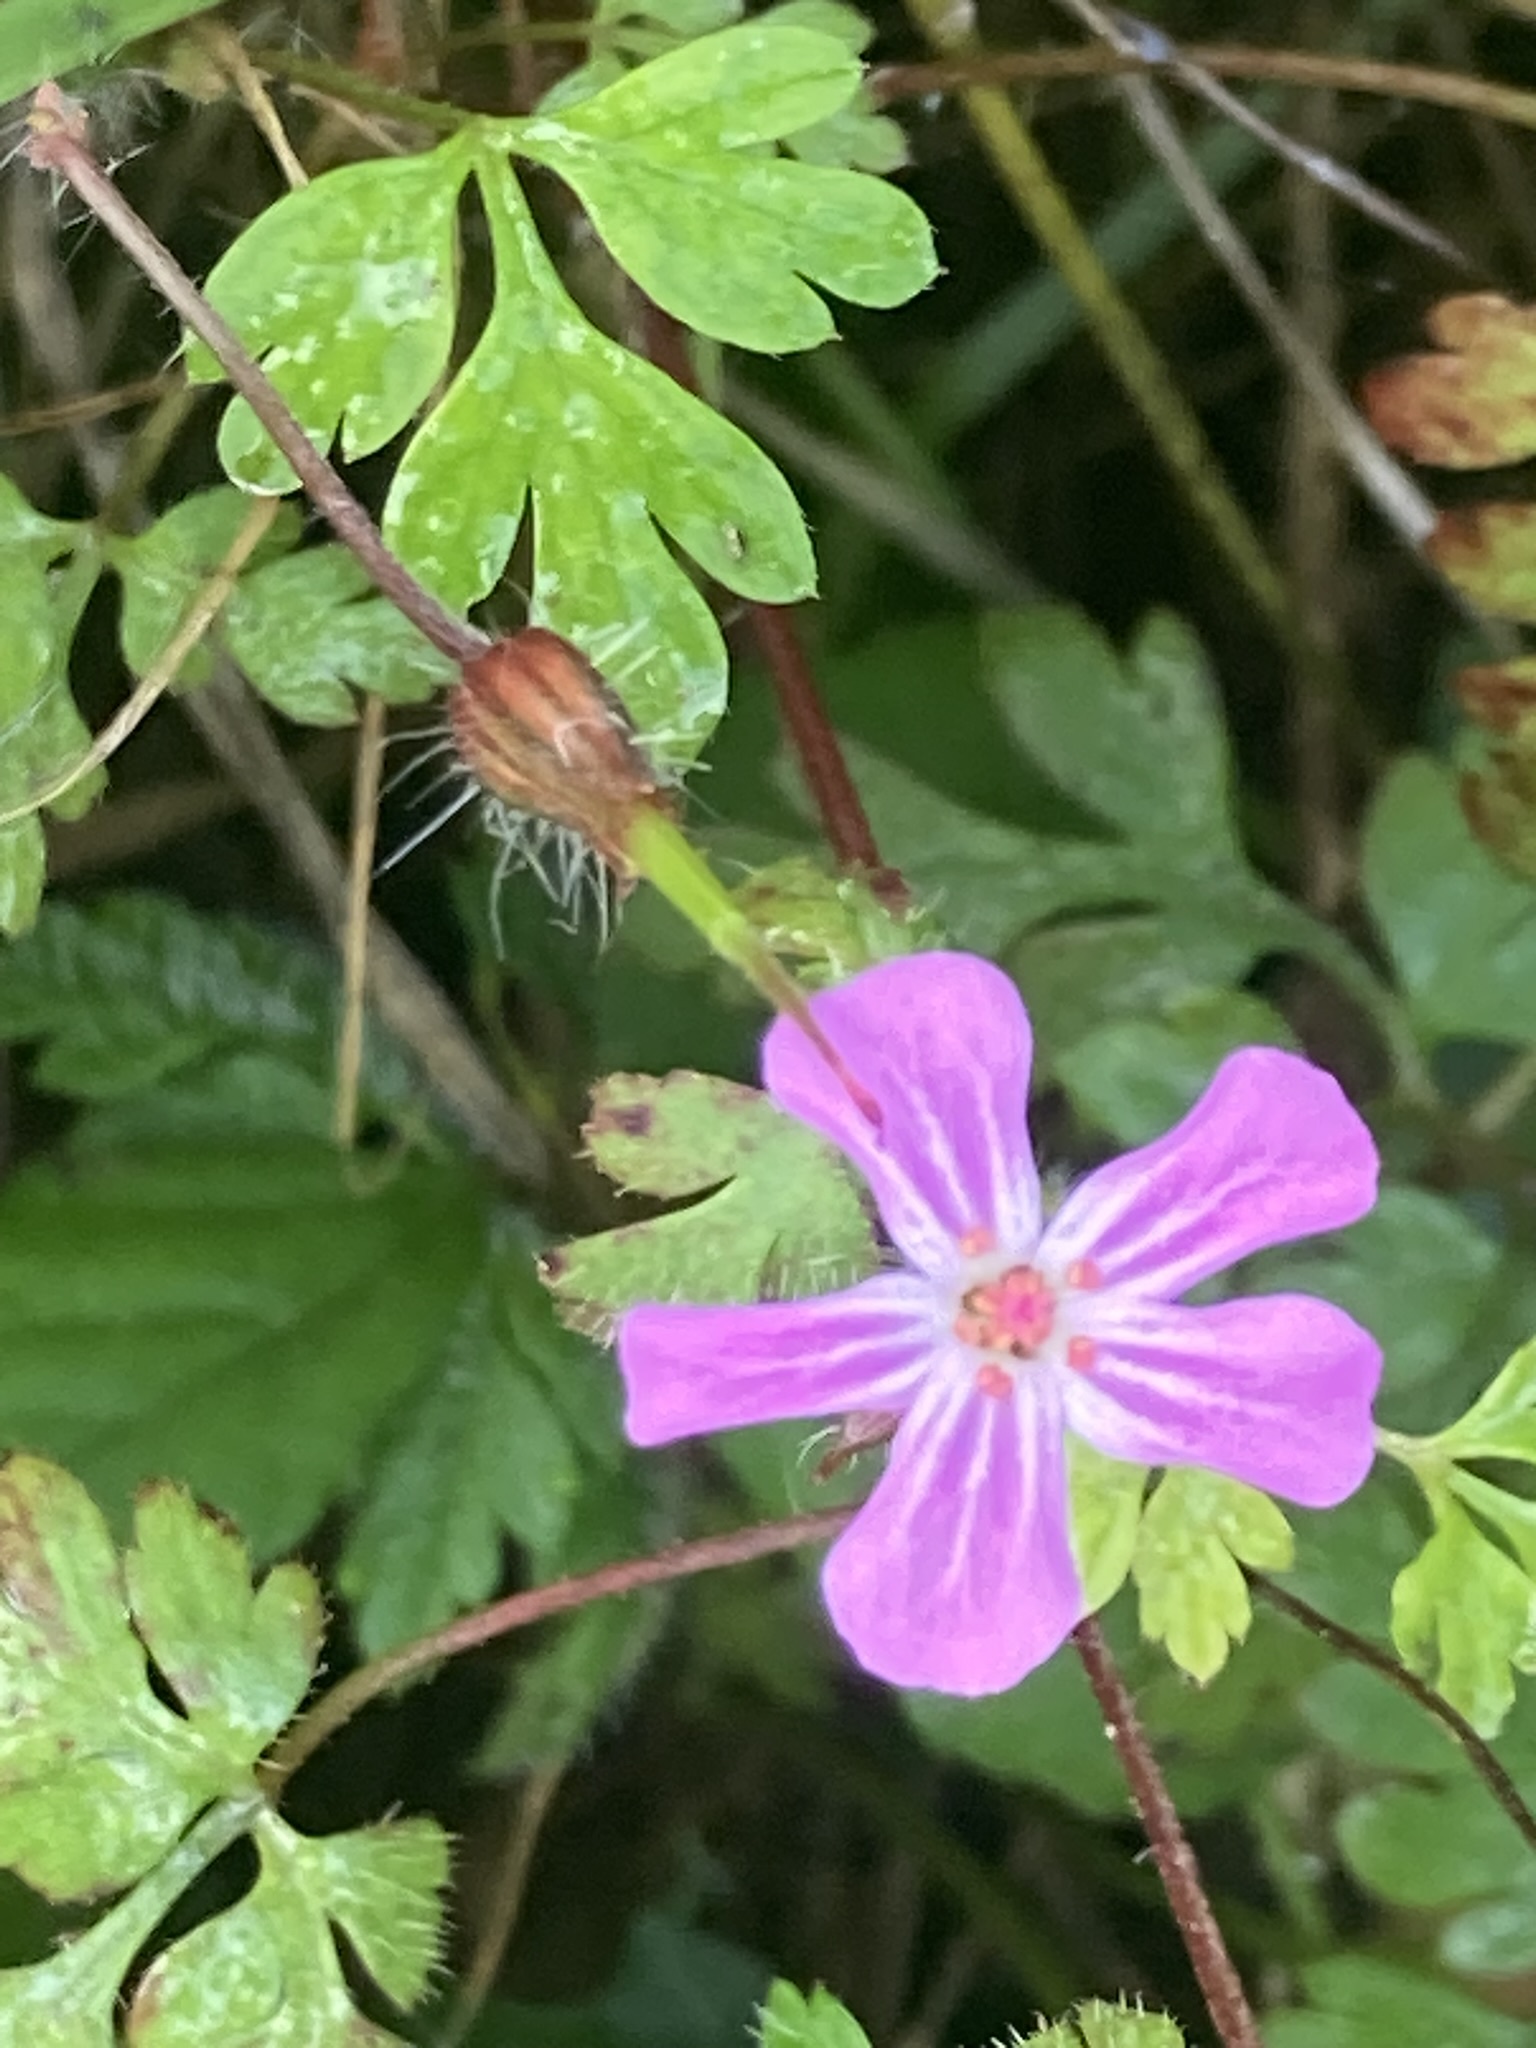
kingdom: Plantae
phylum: Tracheophyta
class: Magnoliopsida
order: Geraniales
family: Geraniaceae
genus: Geranium
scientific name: Geranium robertianum
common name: Herb-robert
